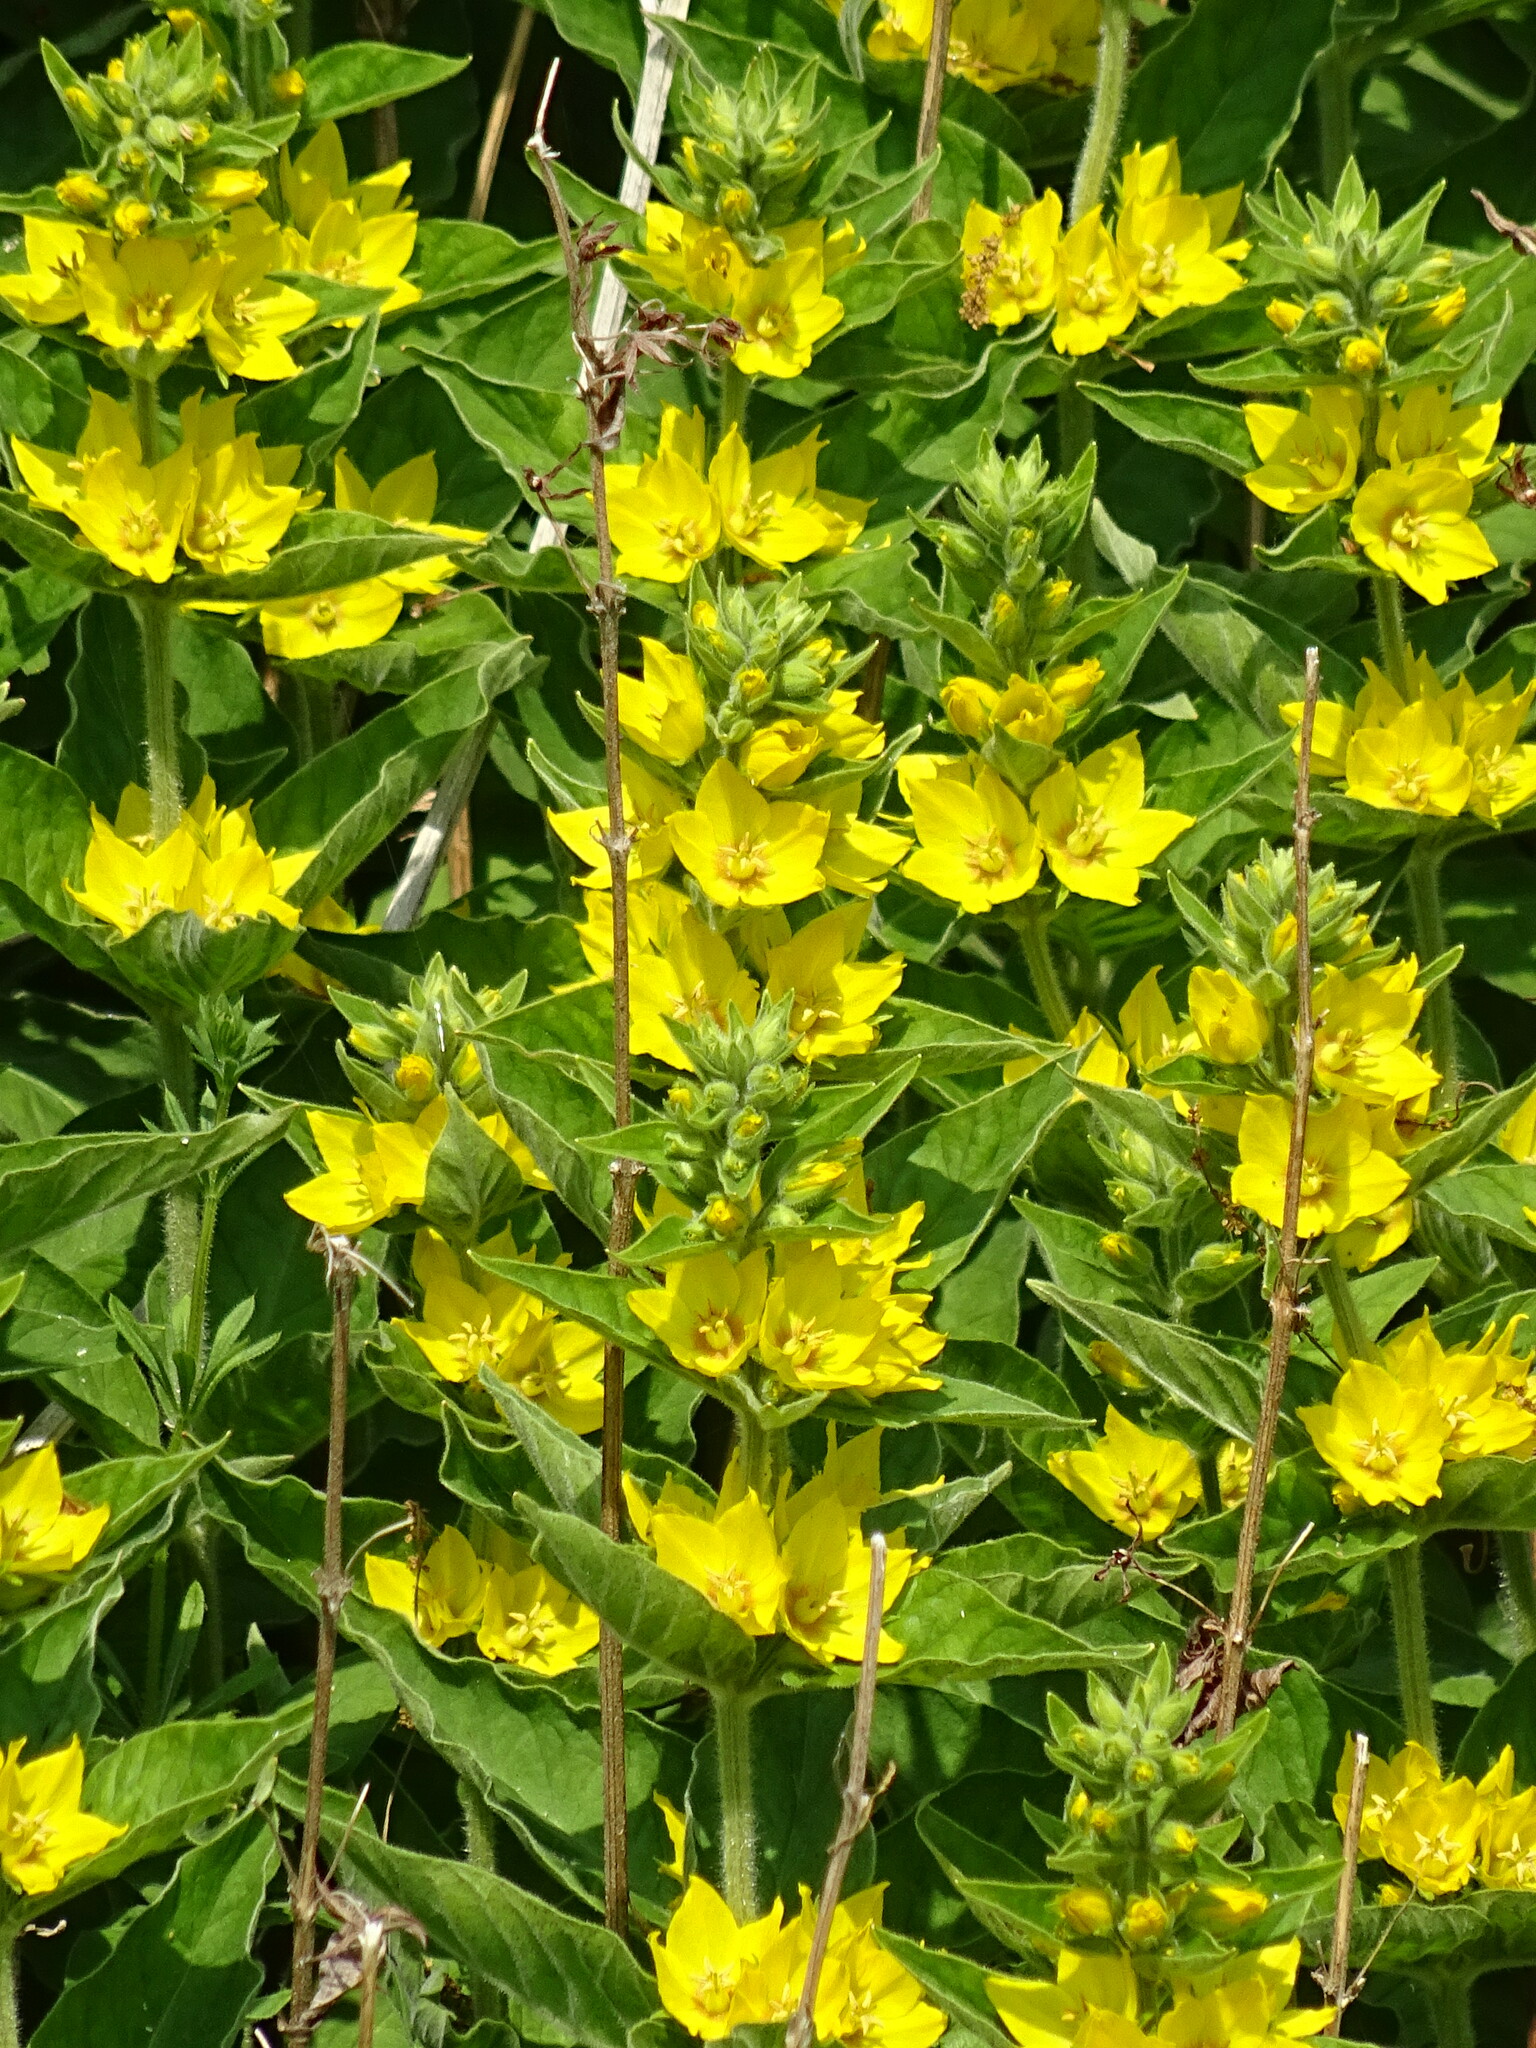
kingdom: Plantae
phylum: Tracheophyta
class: Magnoliopsida
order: Ericales
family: Primulaceae
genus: Lysimachia
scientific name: Lysimachia punctata
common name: Dotted loosestrife
